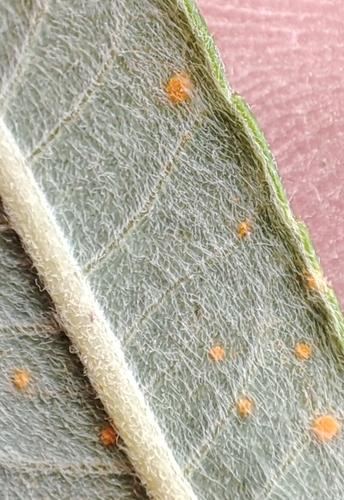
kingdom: Fungi
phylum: Basidiomycota
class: Pucciniomycetes
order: Pucciniales
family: Melampsoraceae
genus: Melampsora
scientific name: Melampsora
